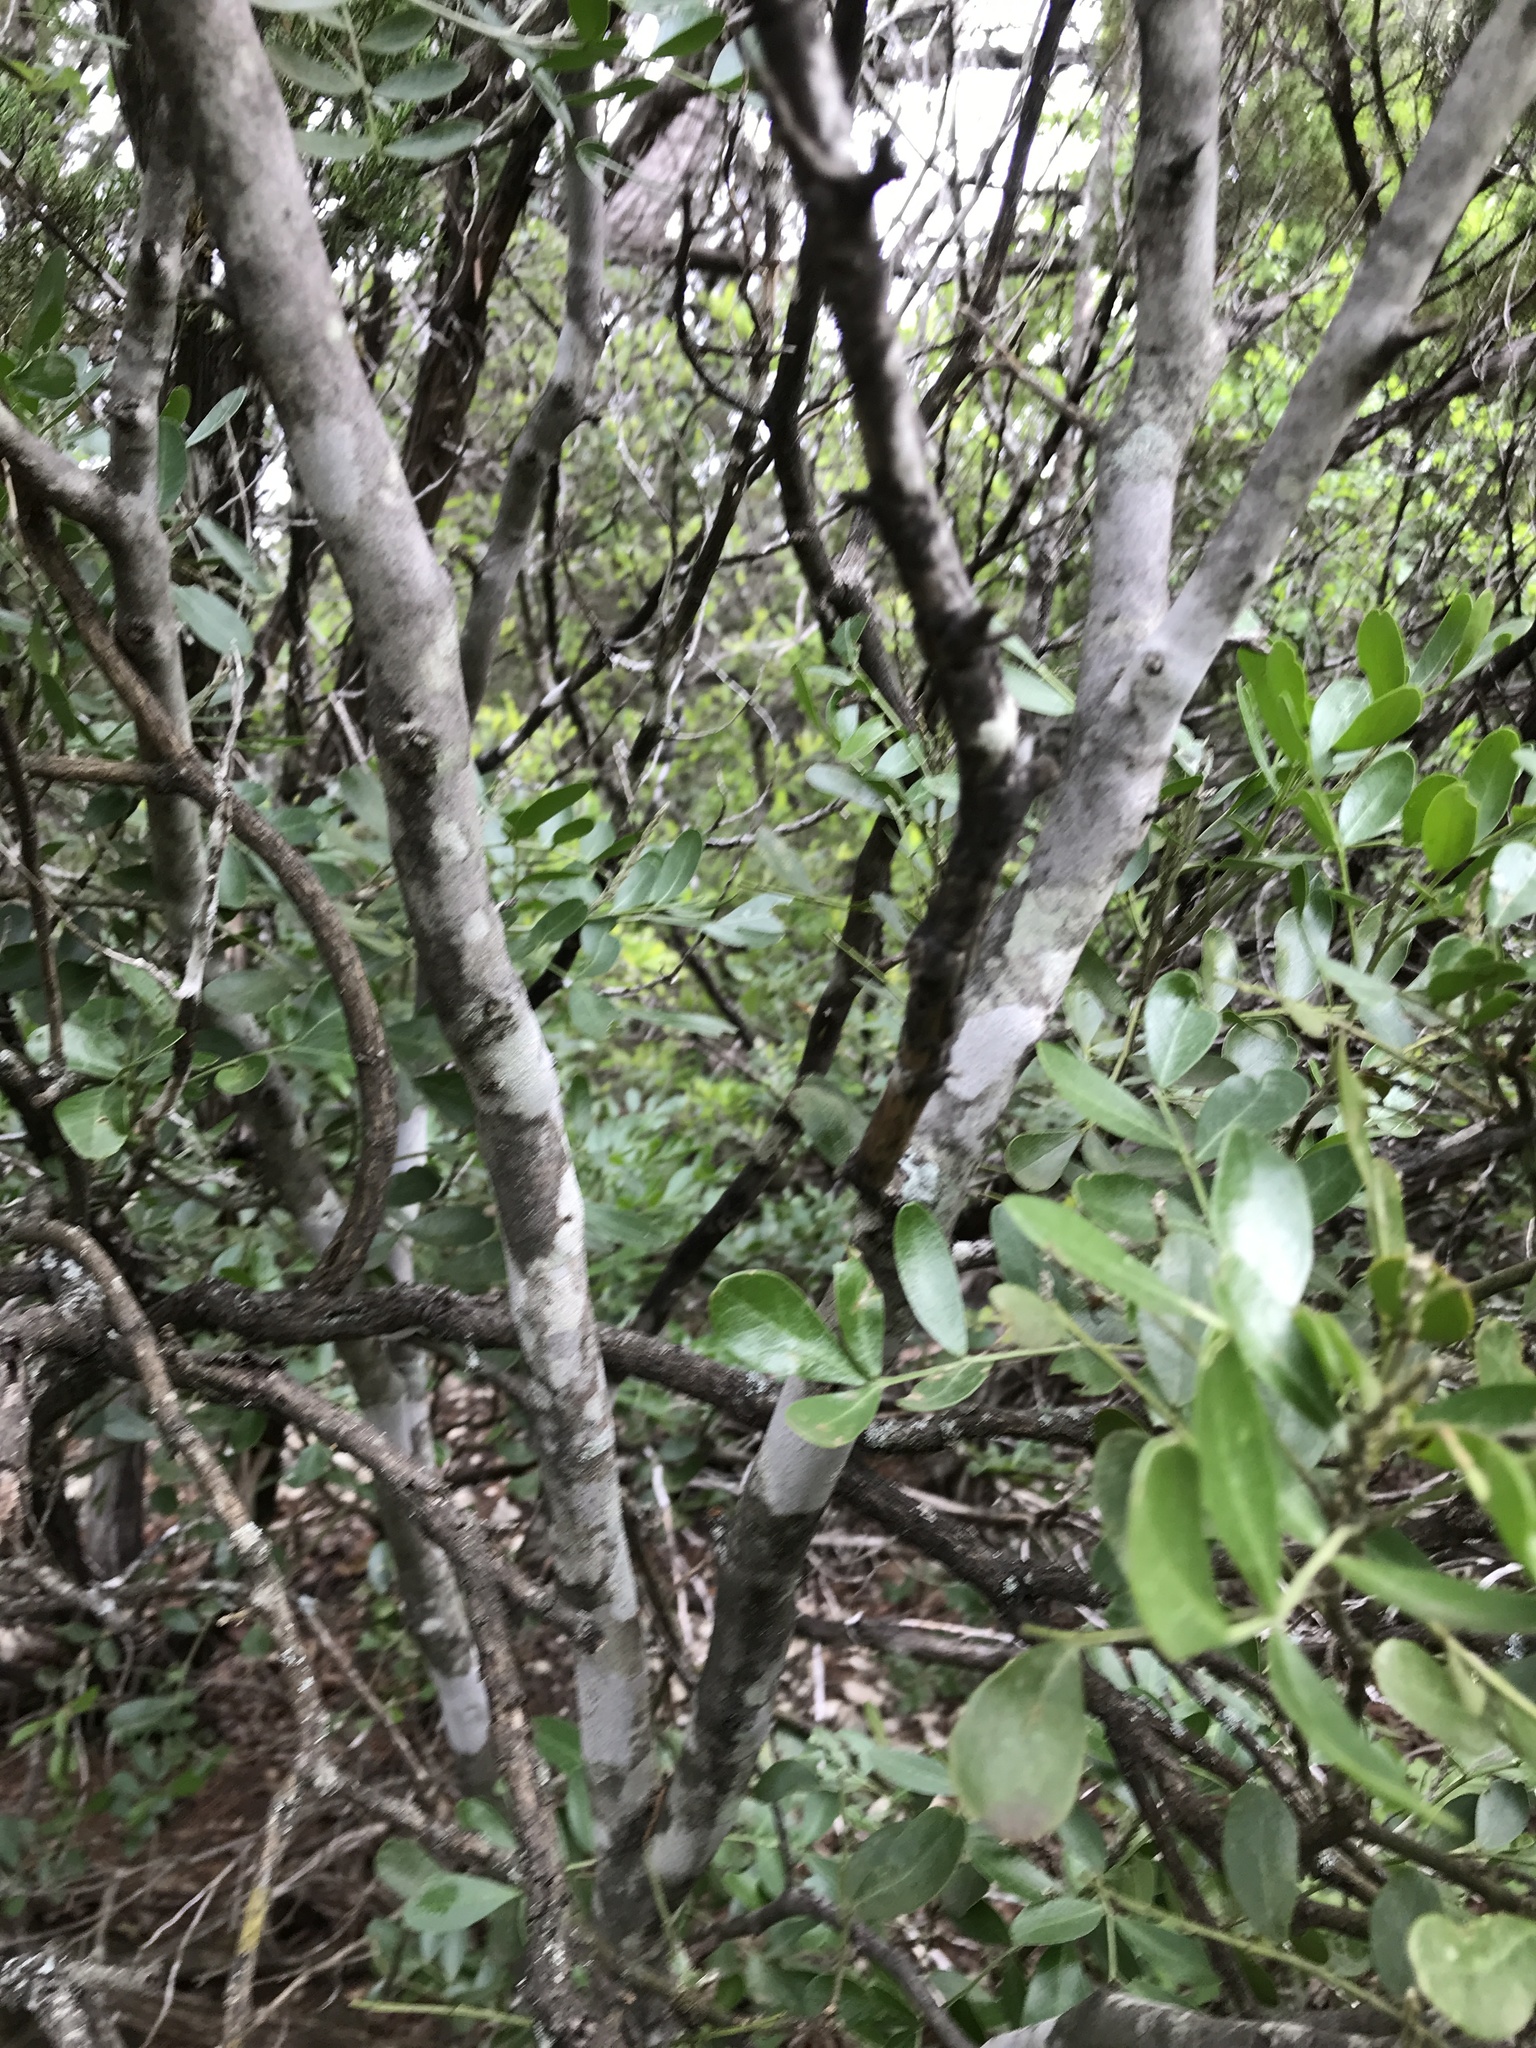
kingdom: Plantae
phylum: Tracheophyta
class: Magnoliopsida
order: Ericales
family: Styracaceae
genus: Styrax
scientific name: Styrax platanifolius
